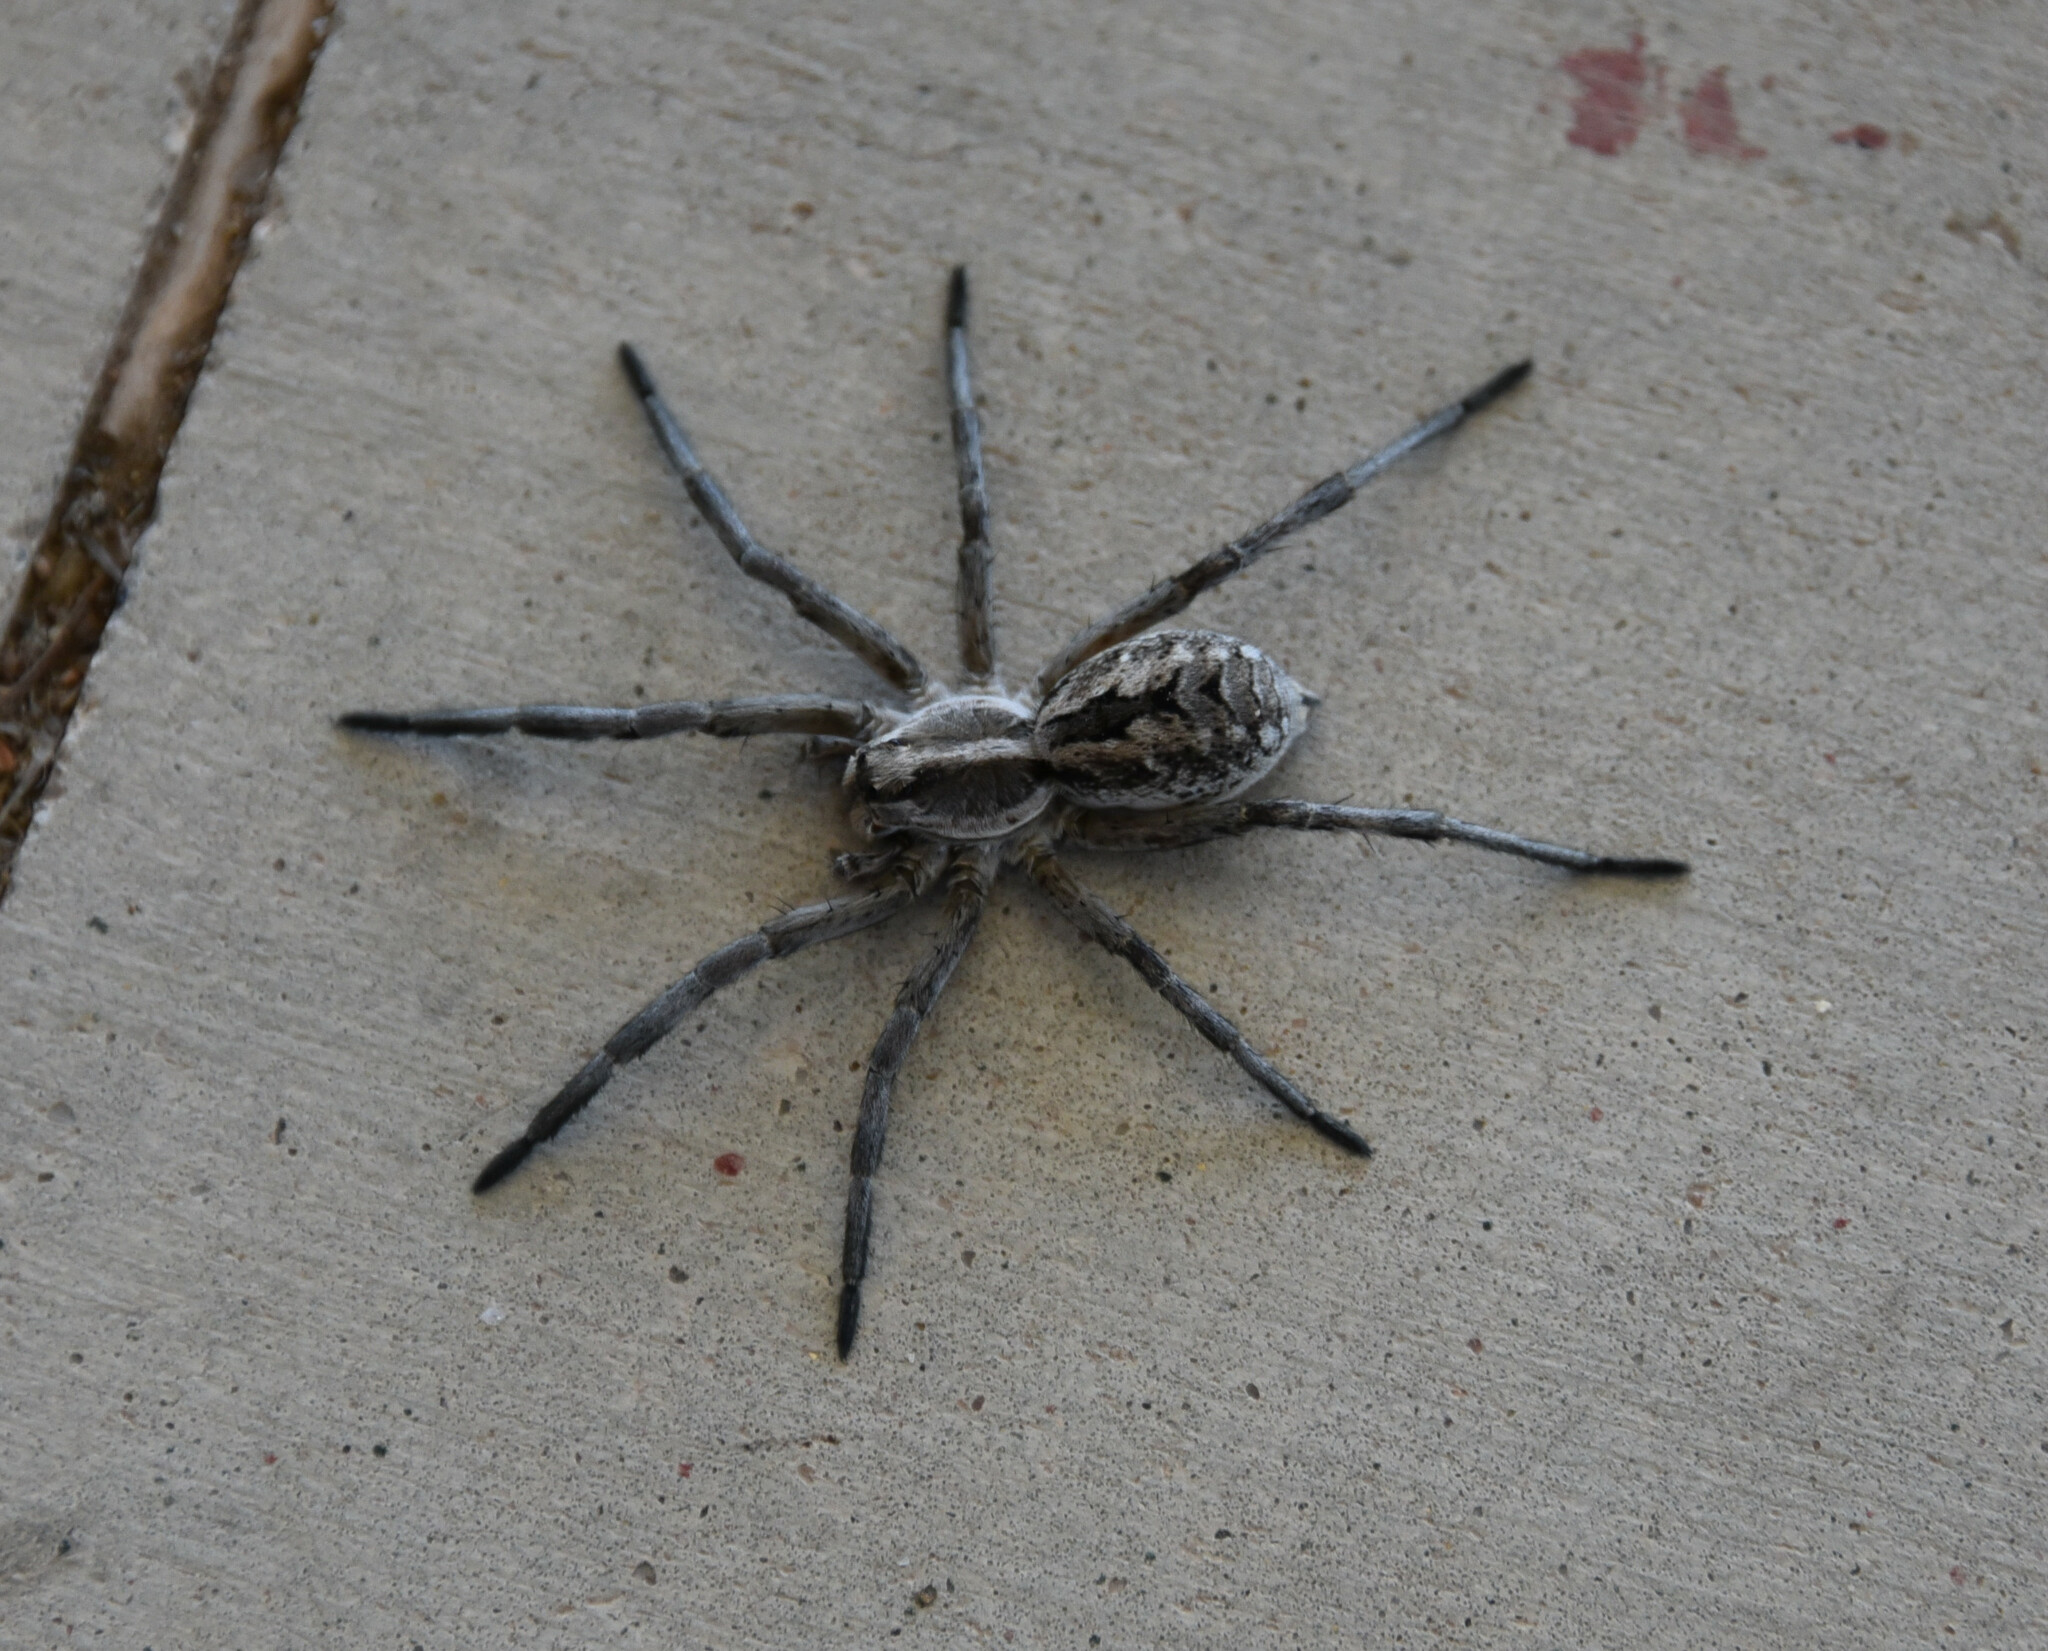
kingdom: Animalia
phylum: Arthropoda
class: Arachnida
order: Araneae
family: Lycosidae
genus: Hogna
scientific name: Hogna carolinensis
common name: Carolina wolf spider
